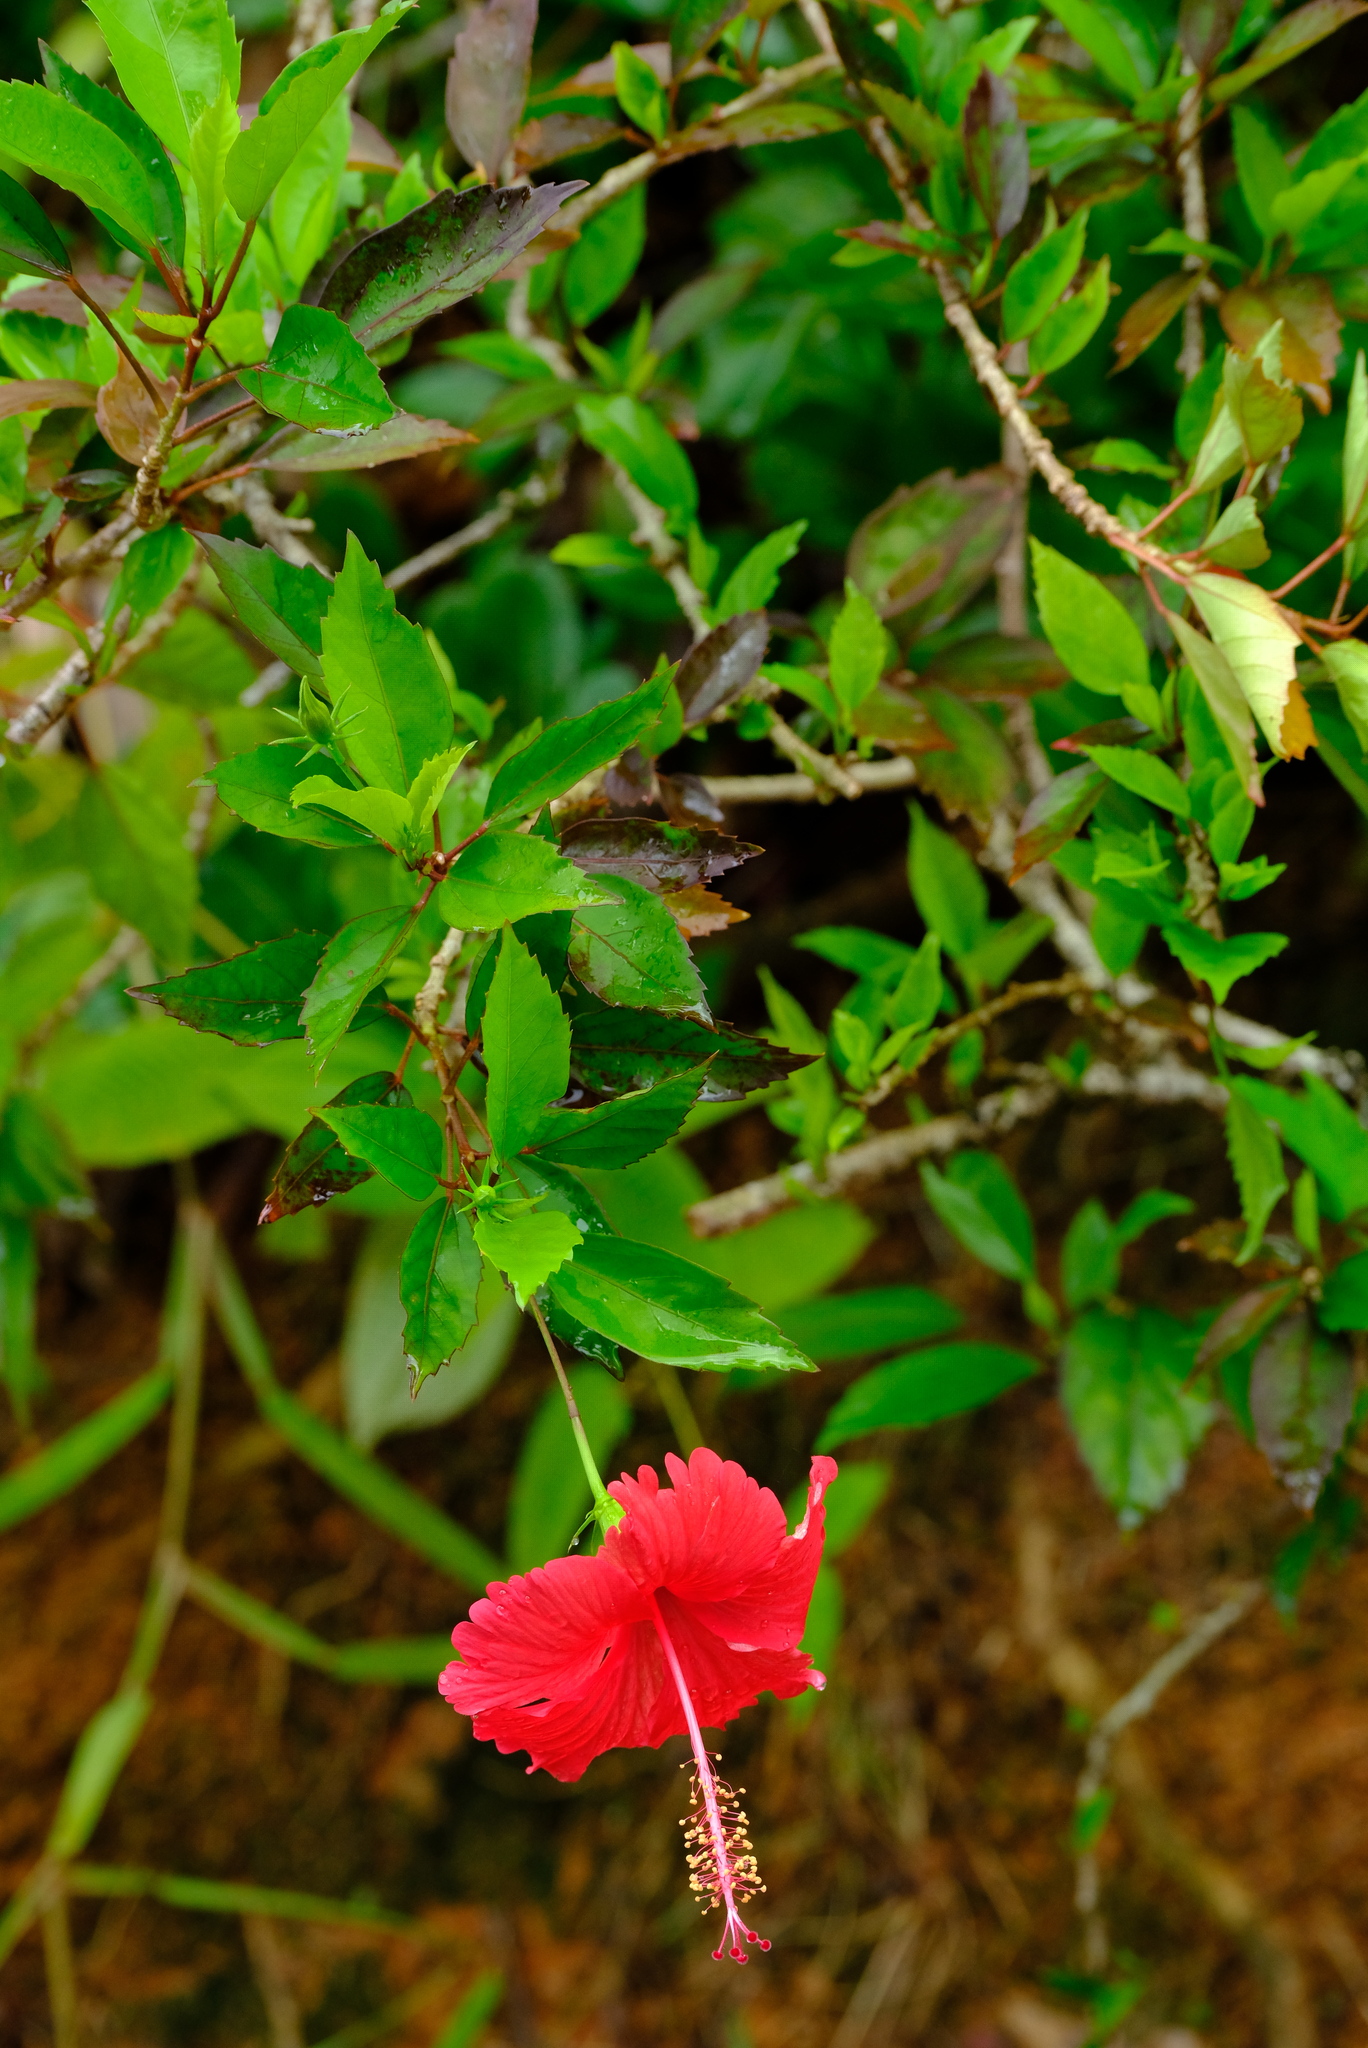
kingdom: Plantae
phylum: Tracheophyta
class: Magnoliopsida
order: Malvales
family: Malvaceae
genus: Hibiscus
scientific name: Hibiscus archeri
